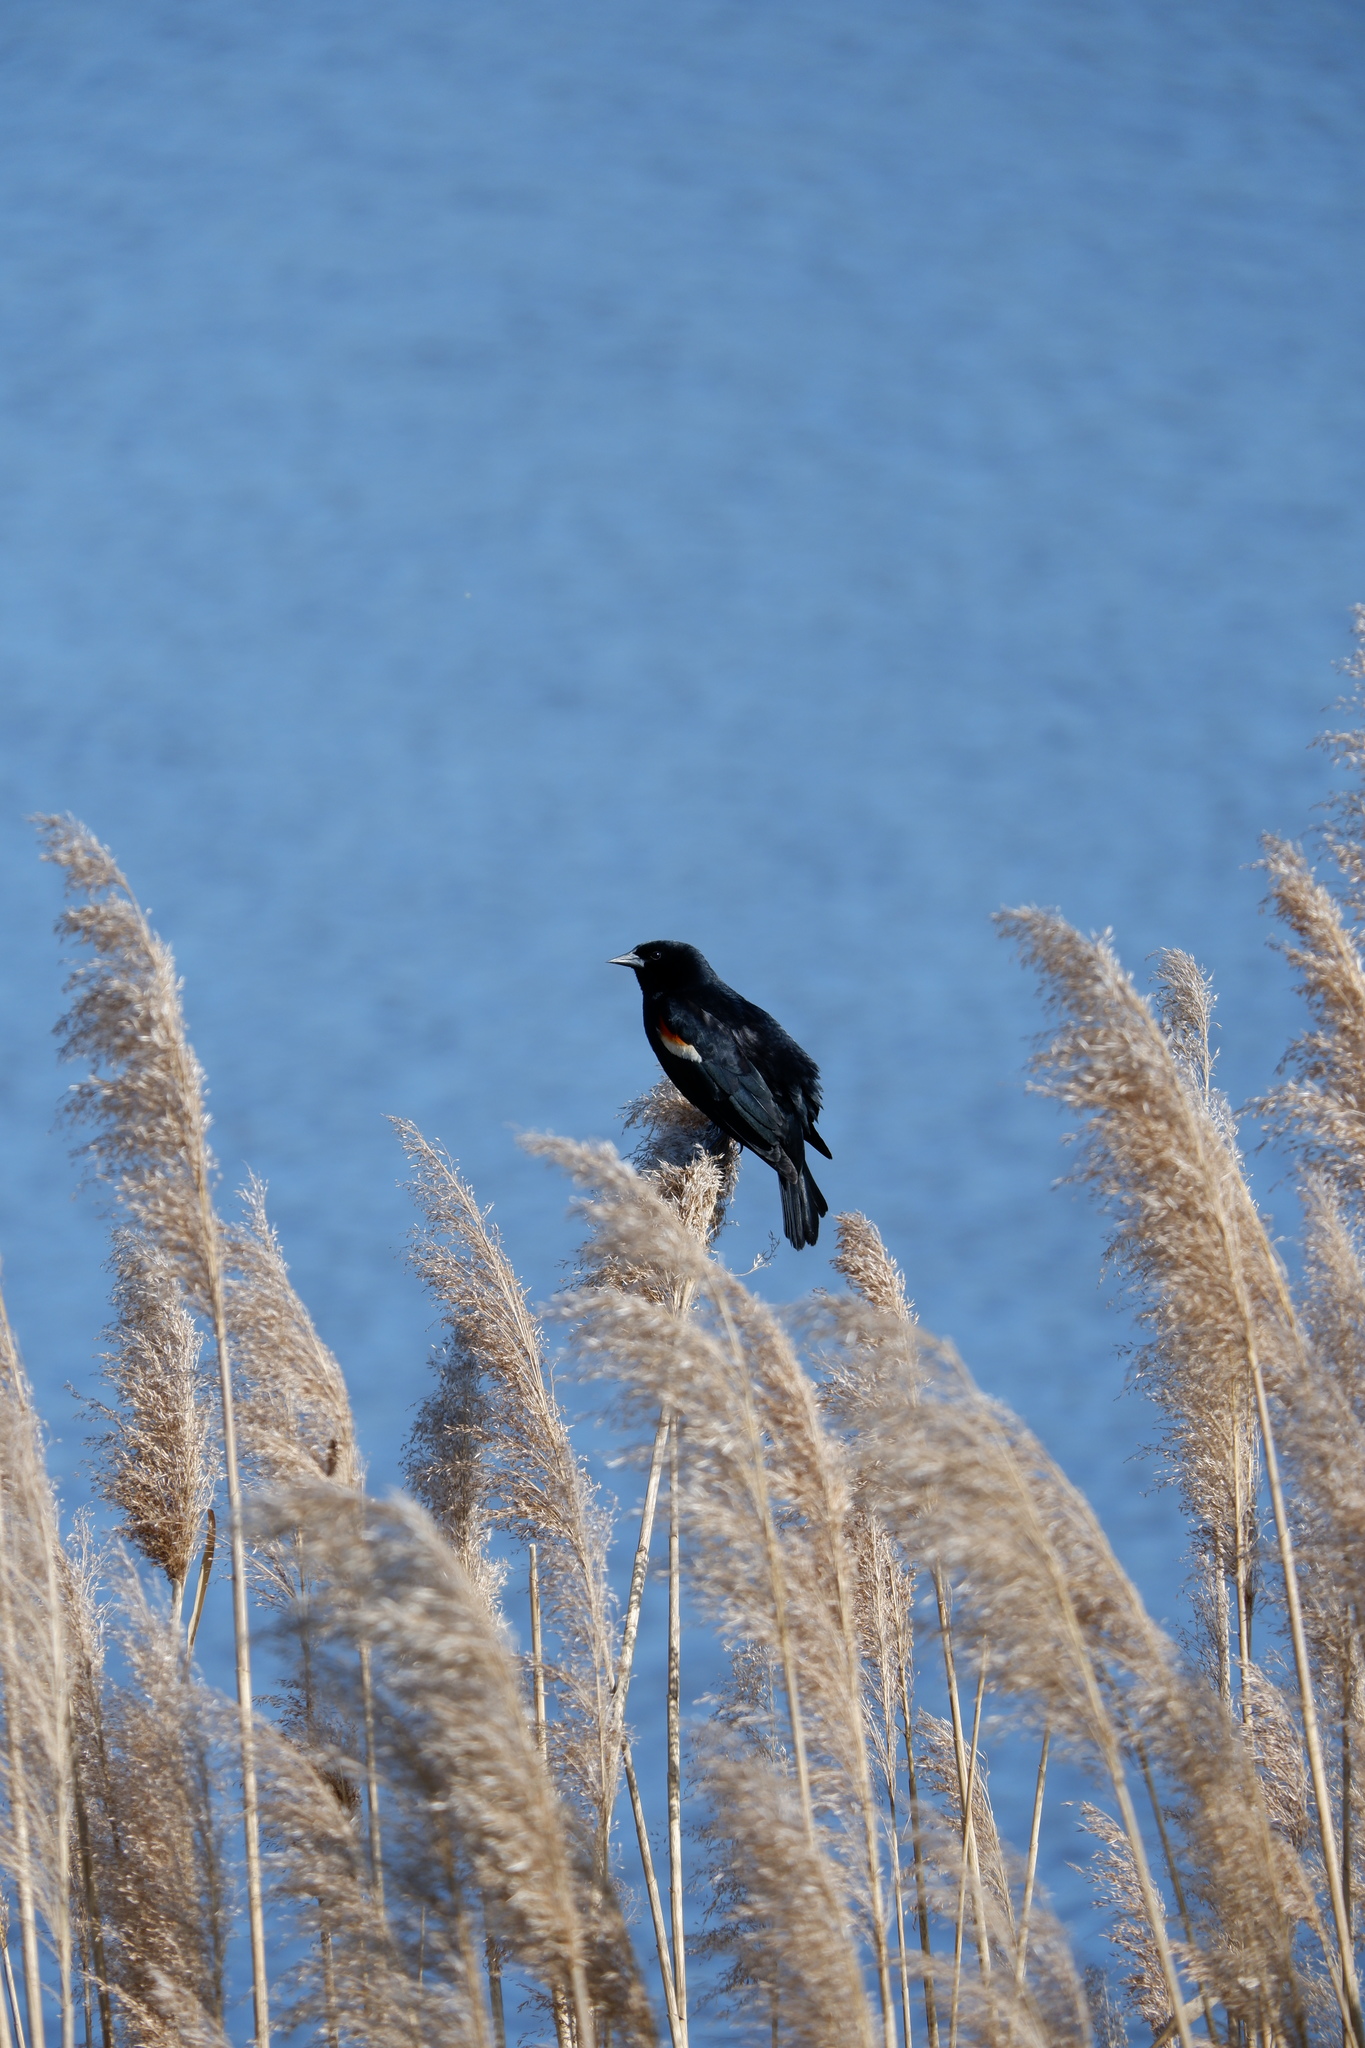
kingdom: Animalia
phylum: Chordata
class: Aves
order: Passeriformes
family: Icteridae
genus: Agelaius
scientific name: Agelaius phoeniceus
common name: Red-winged blackbird
